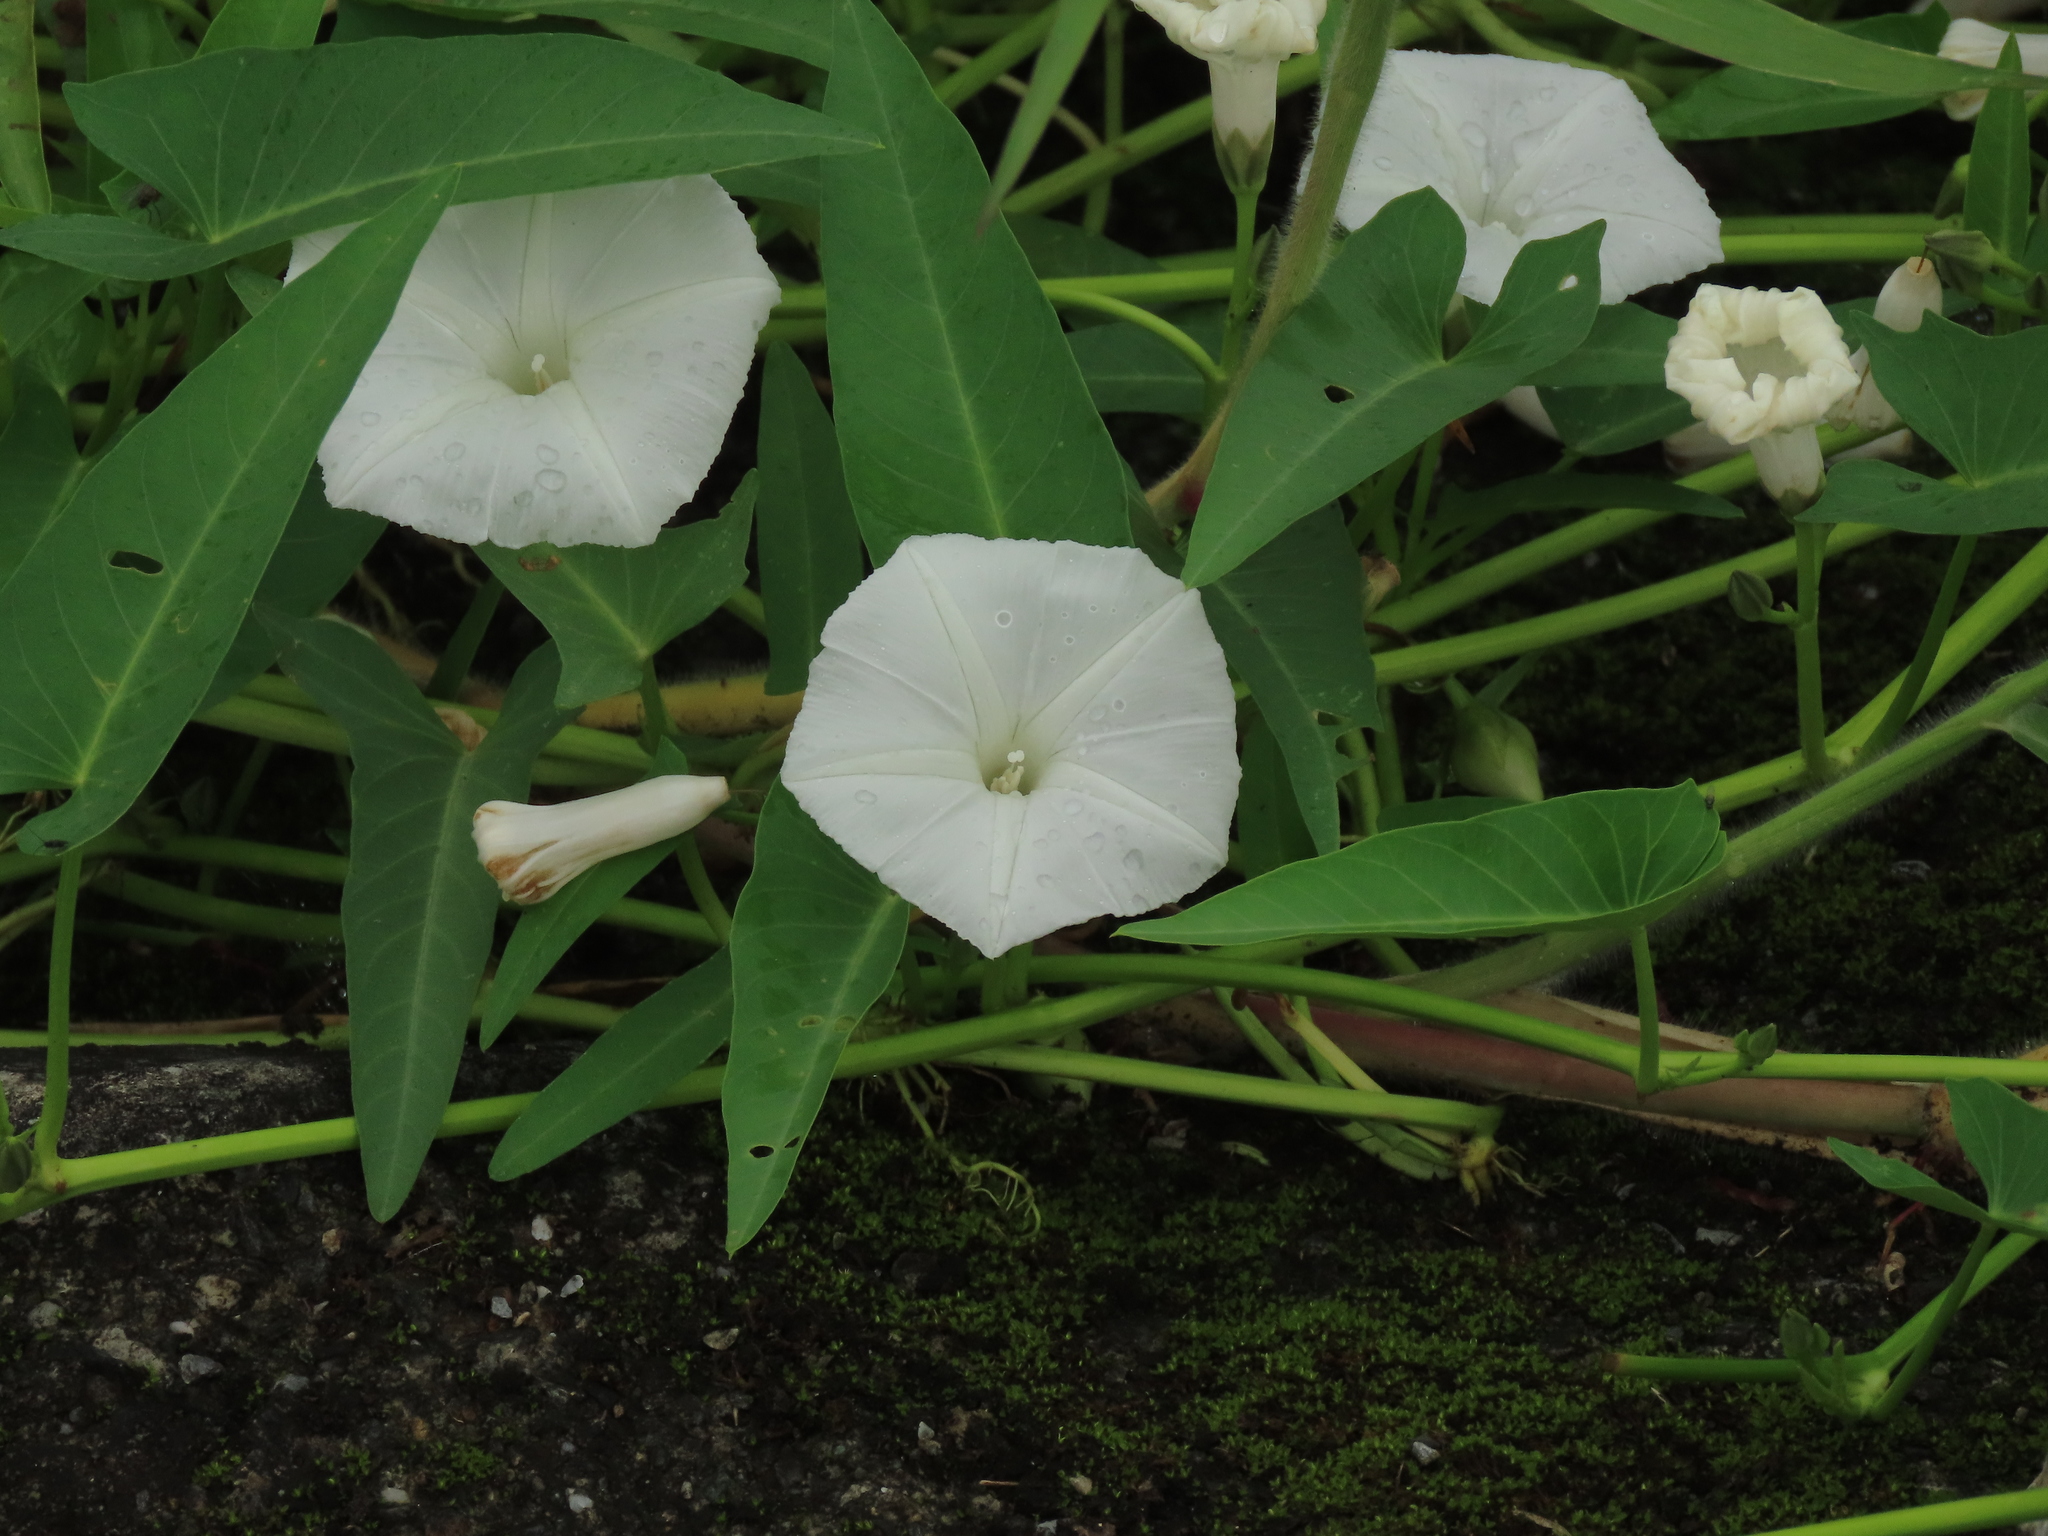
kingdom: Plantae
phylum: Tracheophyta
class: Magnoliopsida
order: Solanales
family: Convolvulaceae
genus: Ipomoea
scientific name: Ipomoea aquatica
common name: Swamp morning-glory
